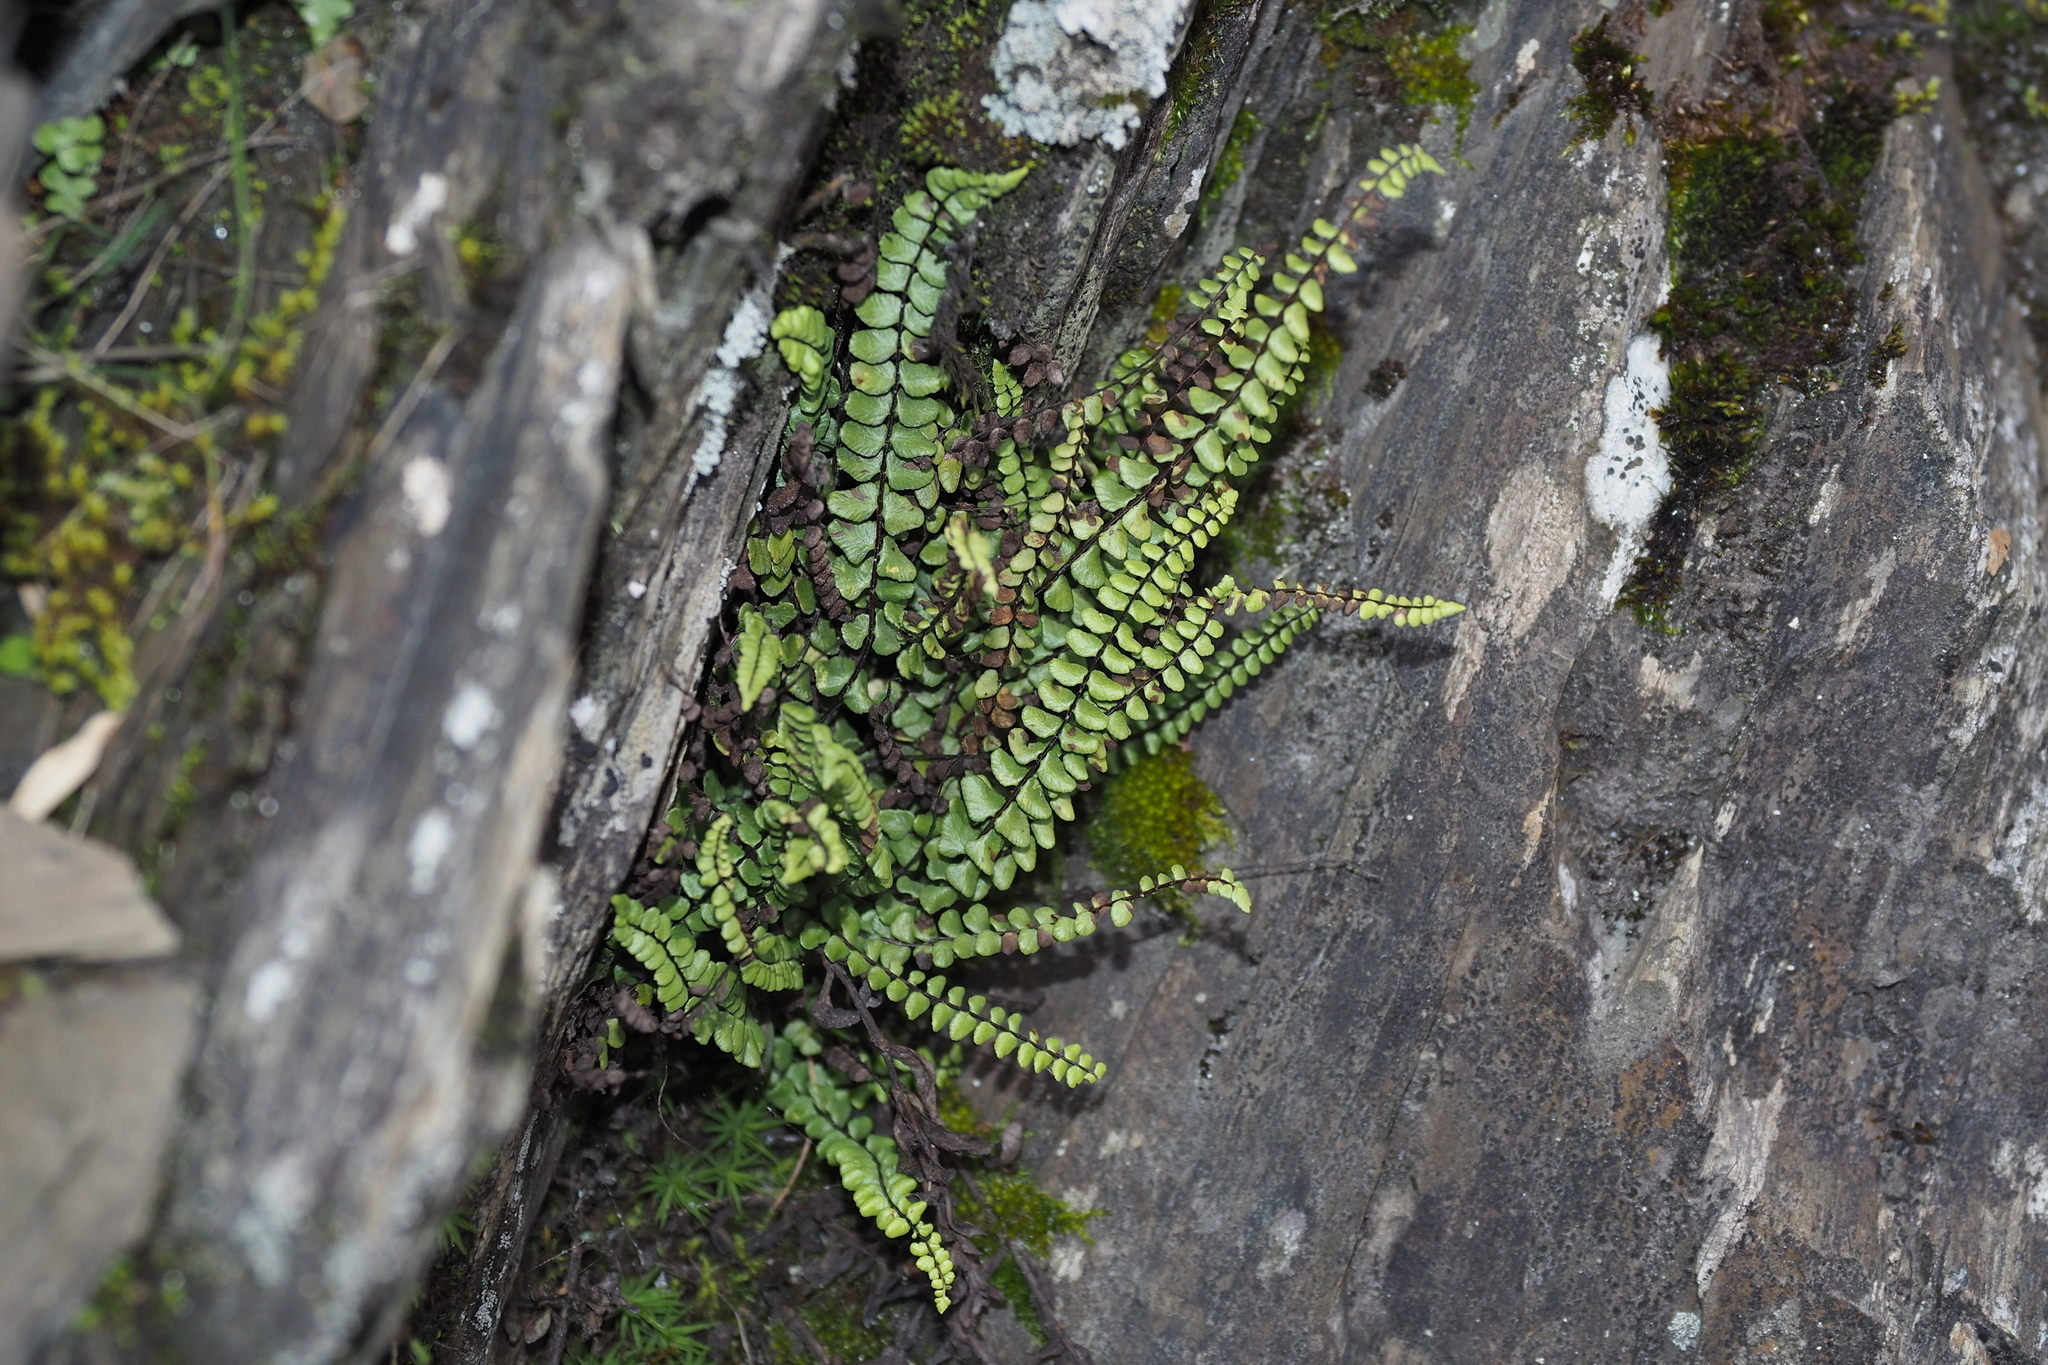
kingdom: Plantae
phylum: Tracheophyta
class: Polypodiopsida
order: Polypodiales
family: Aspleniaceae
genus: Asplenium
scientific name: Asplenium trichomanes
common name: Maidenhair spleenwort
